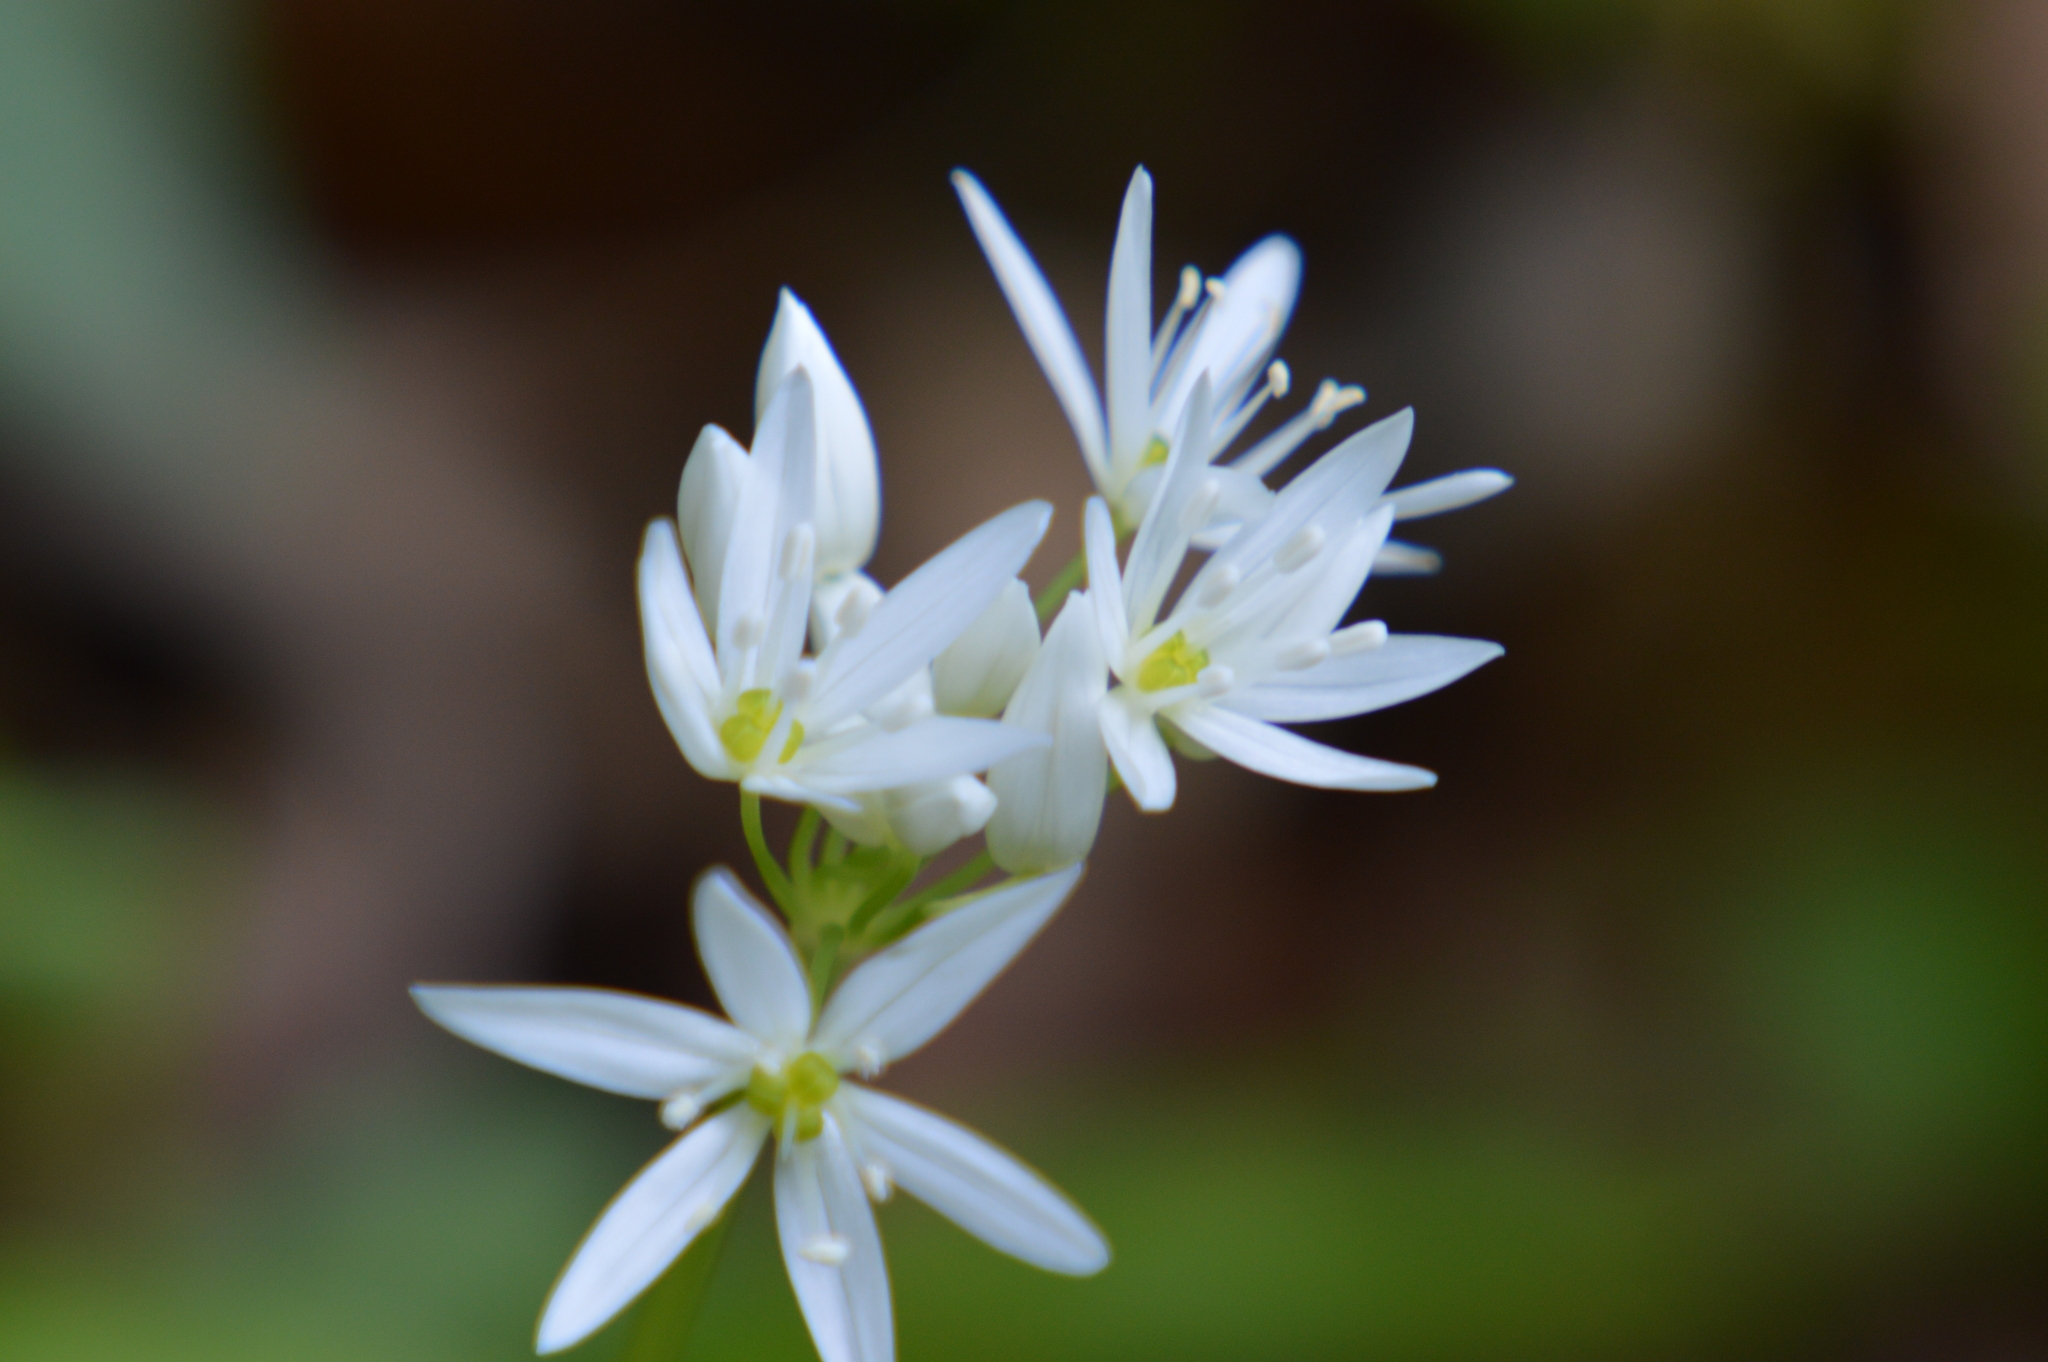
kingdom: Plantae
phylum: Tracheophyta
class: Liliopsida
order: Asparagales
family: Amaryllidaceae
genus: Allium
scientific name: Allium ursinum
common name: Ramsons
